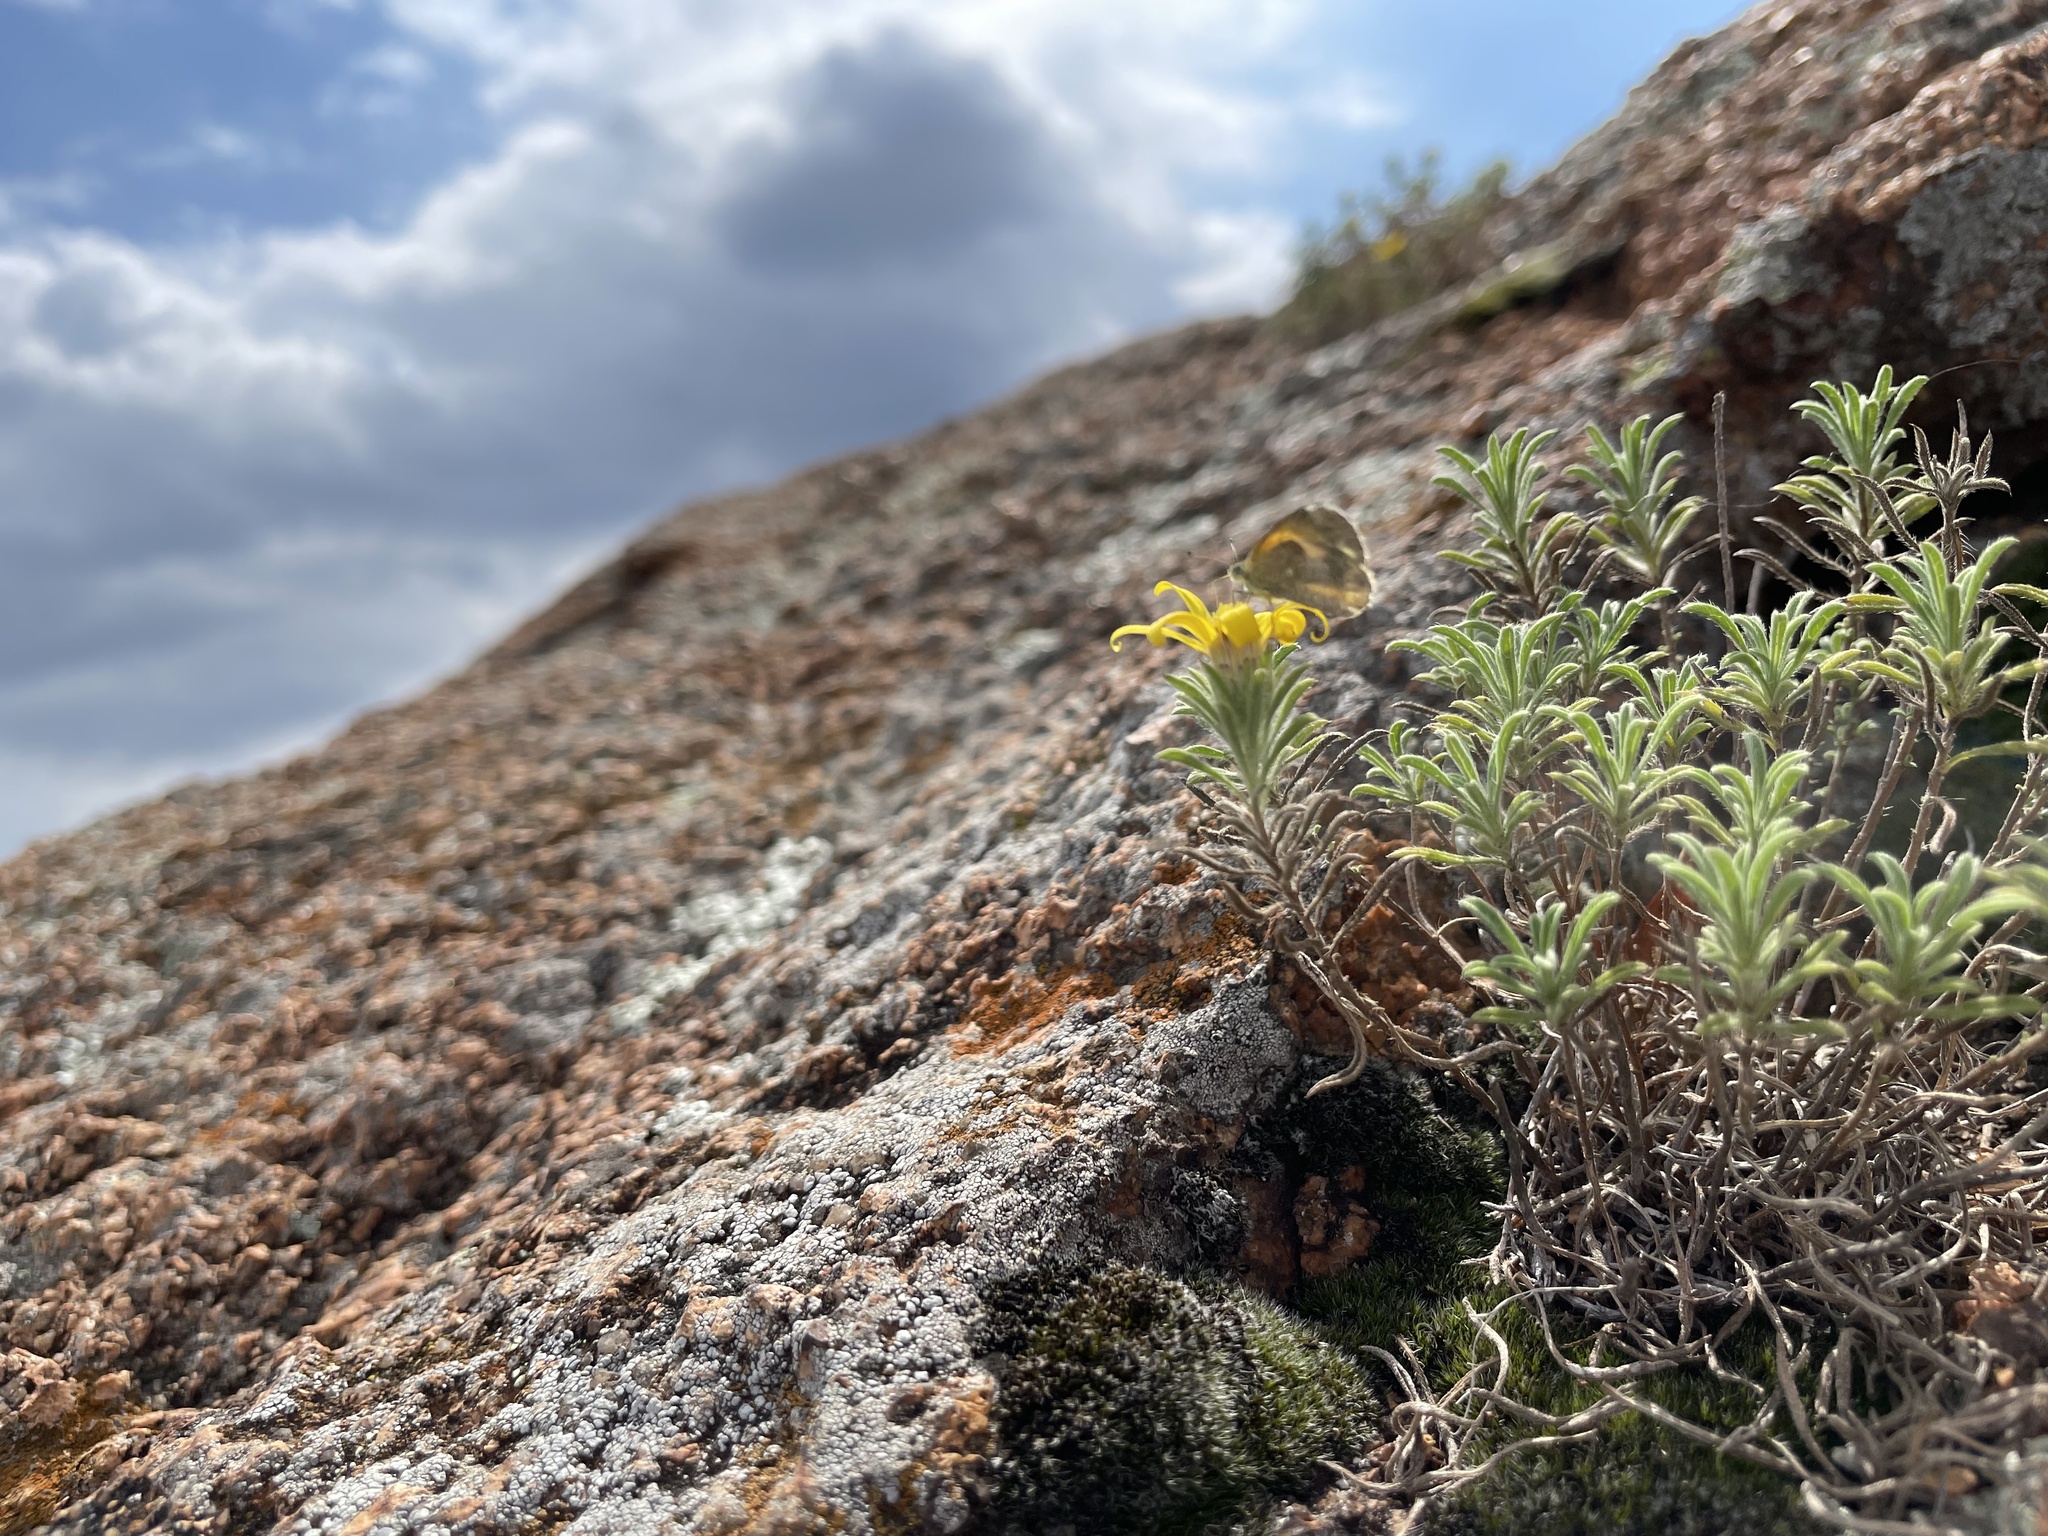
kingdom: Animalia
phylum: Arthropoda
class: Insecta
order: Lepidoptera
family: Pieridae
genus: Nathalis
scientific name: Nathalis iole
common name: Dainty sulphur
